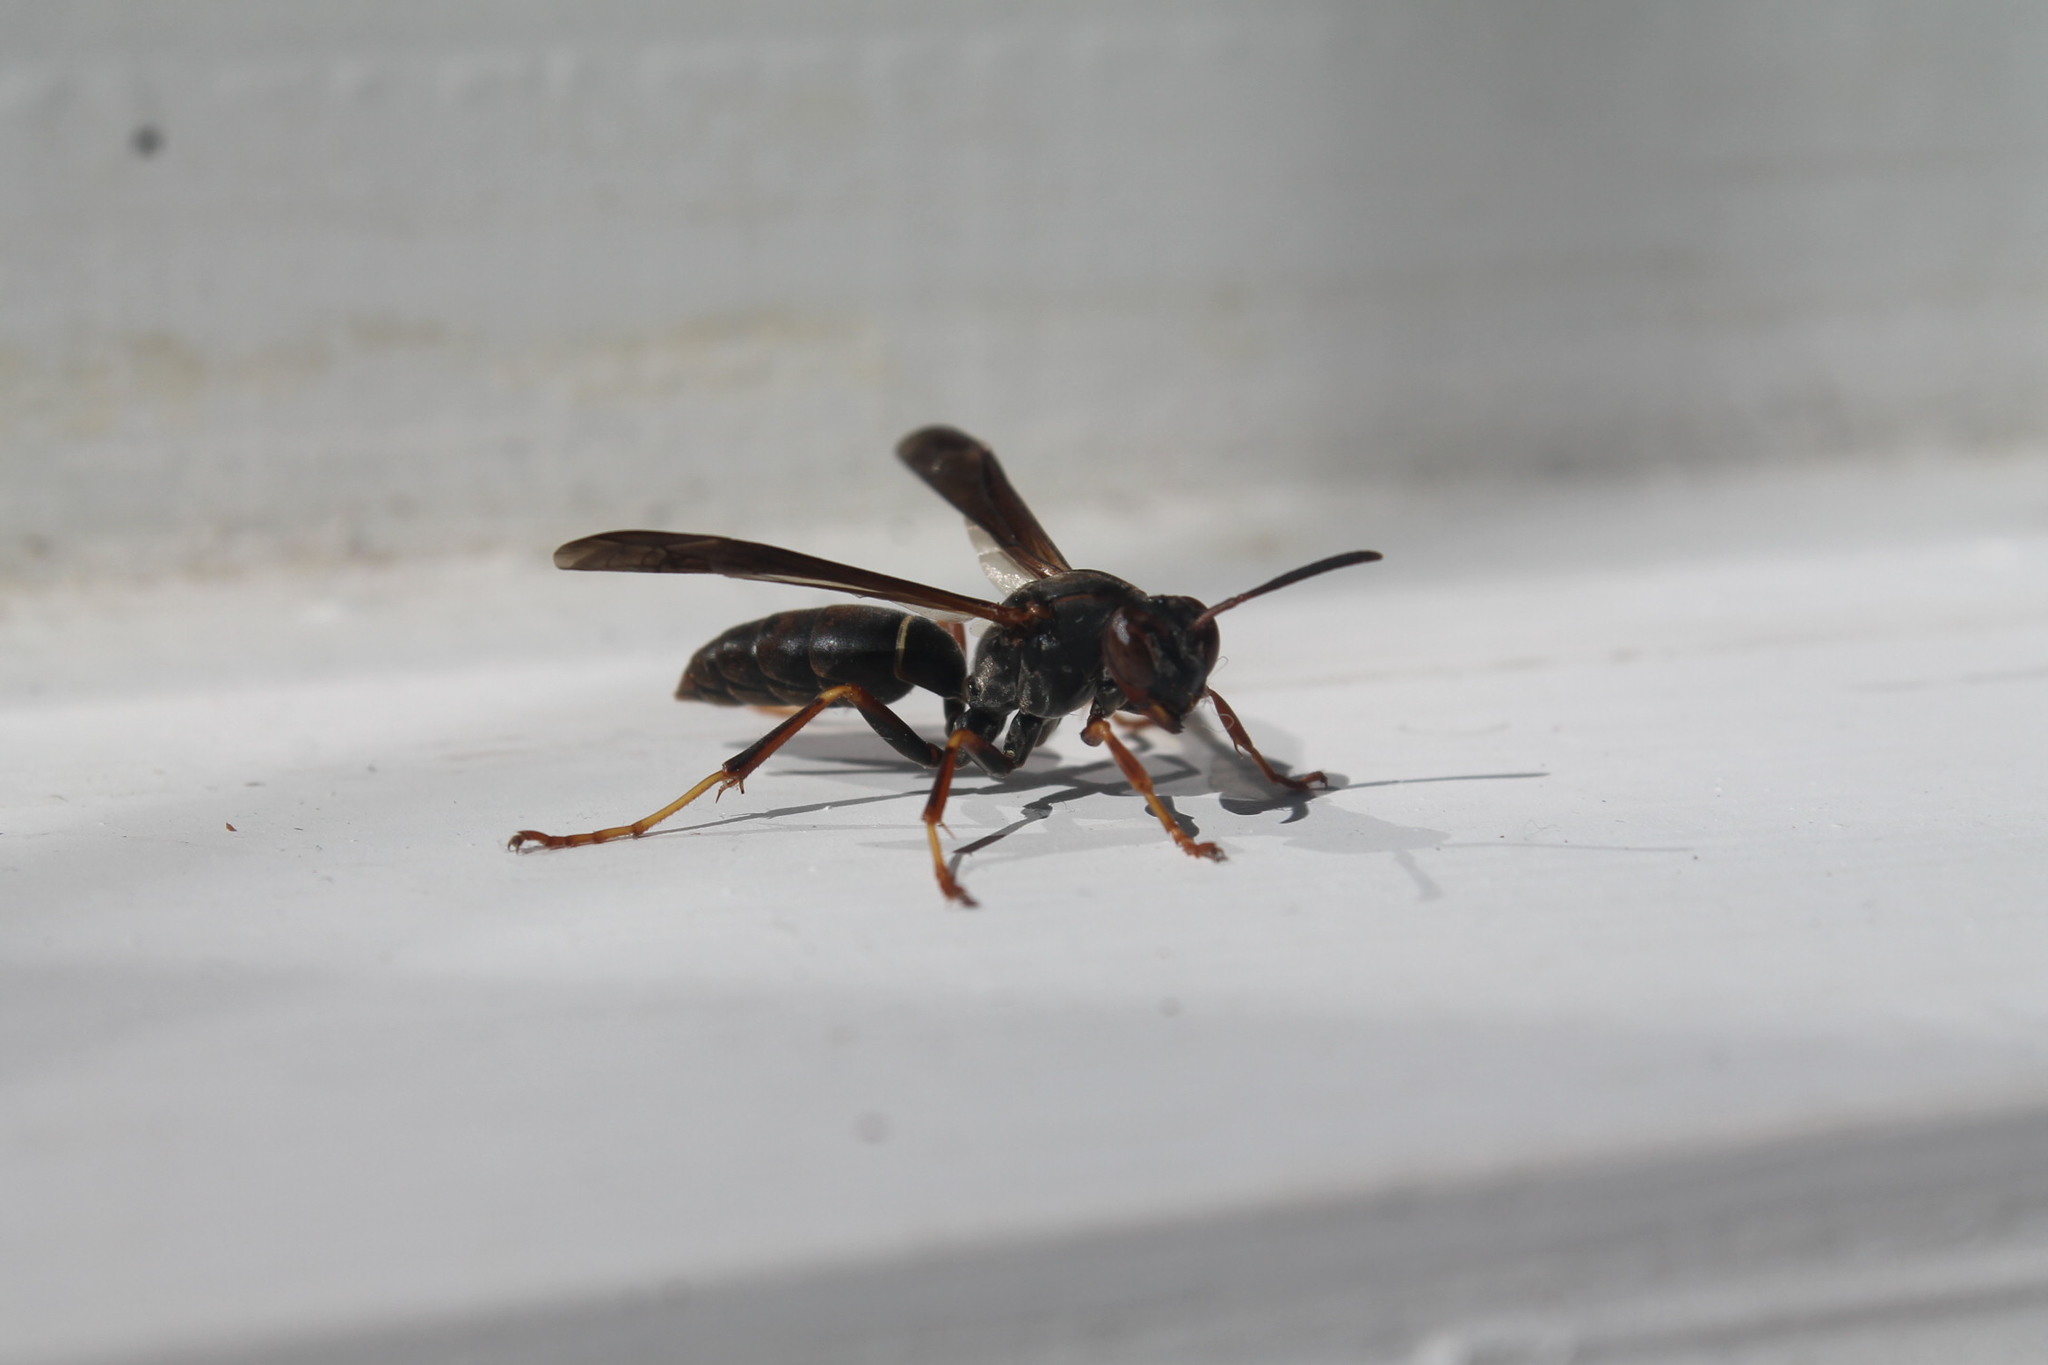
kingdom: Animalia
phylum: Arthropoda
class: Insecta
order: Hymenoptera
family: Eumenidae
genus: Polistes
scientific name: Polistes fuscatus
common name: Dark paper wasp
